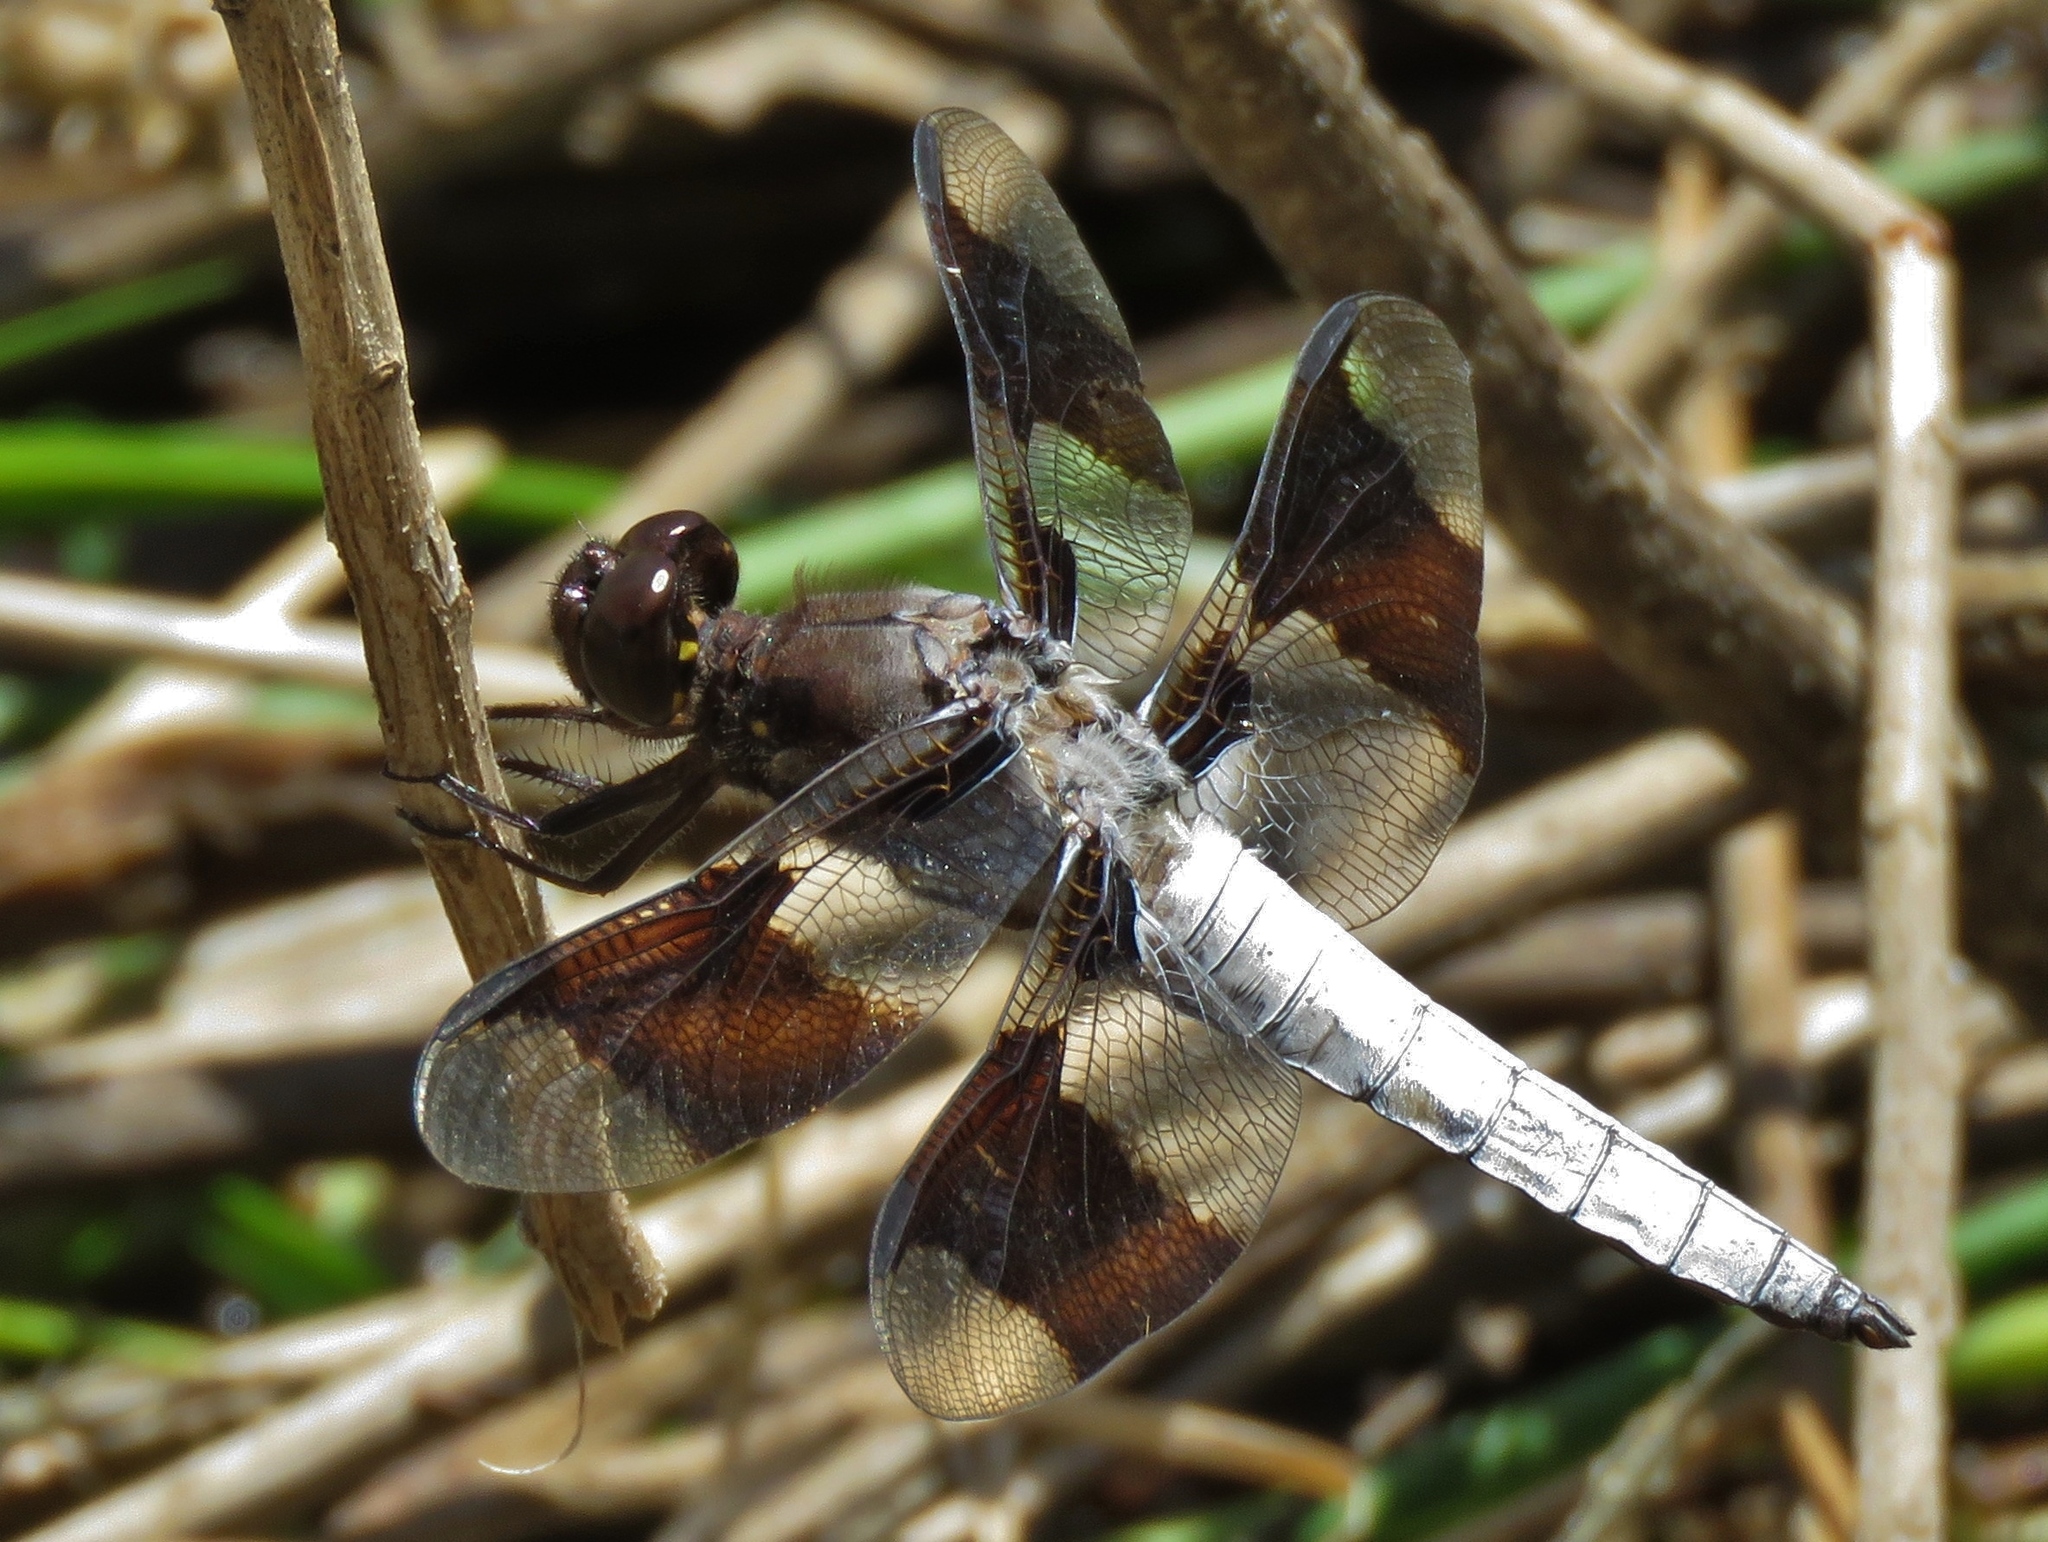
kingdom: Animalia
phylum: Arthropoda
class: Insecta
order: Odonata
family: Libellulidae
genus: Plathemis
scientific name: Plathemis lydia
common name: Common whitetail
